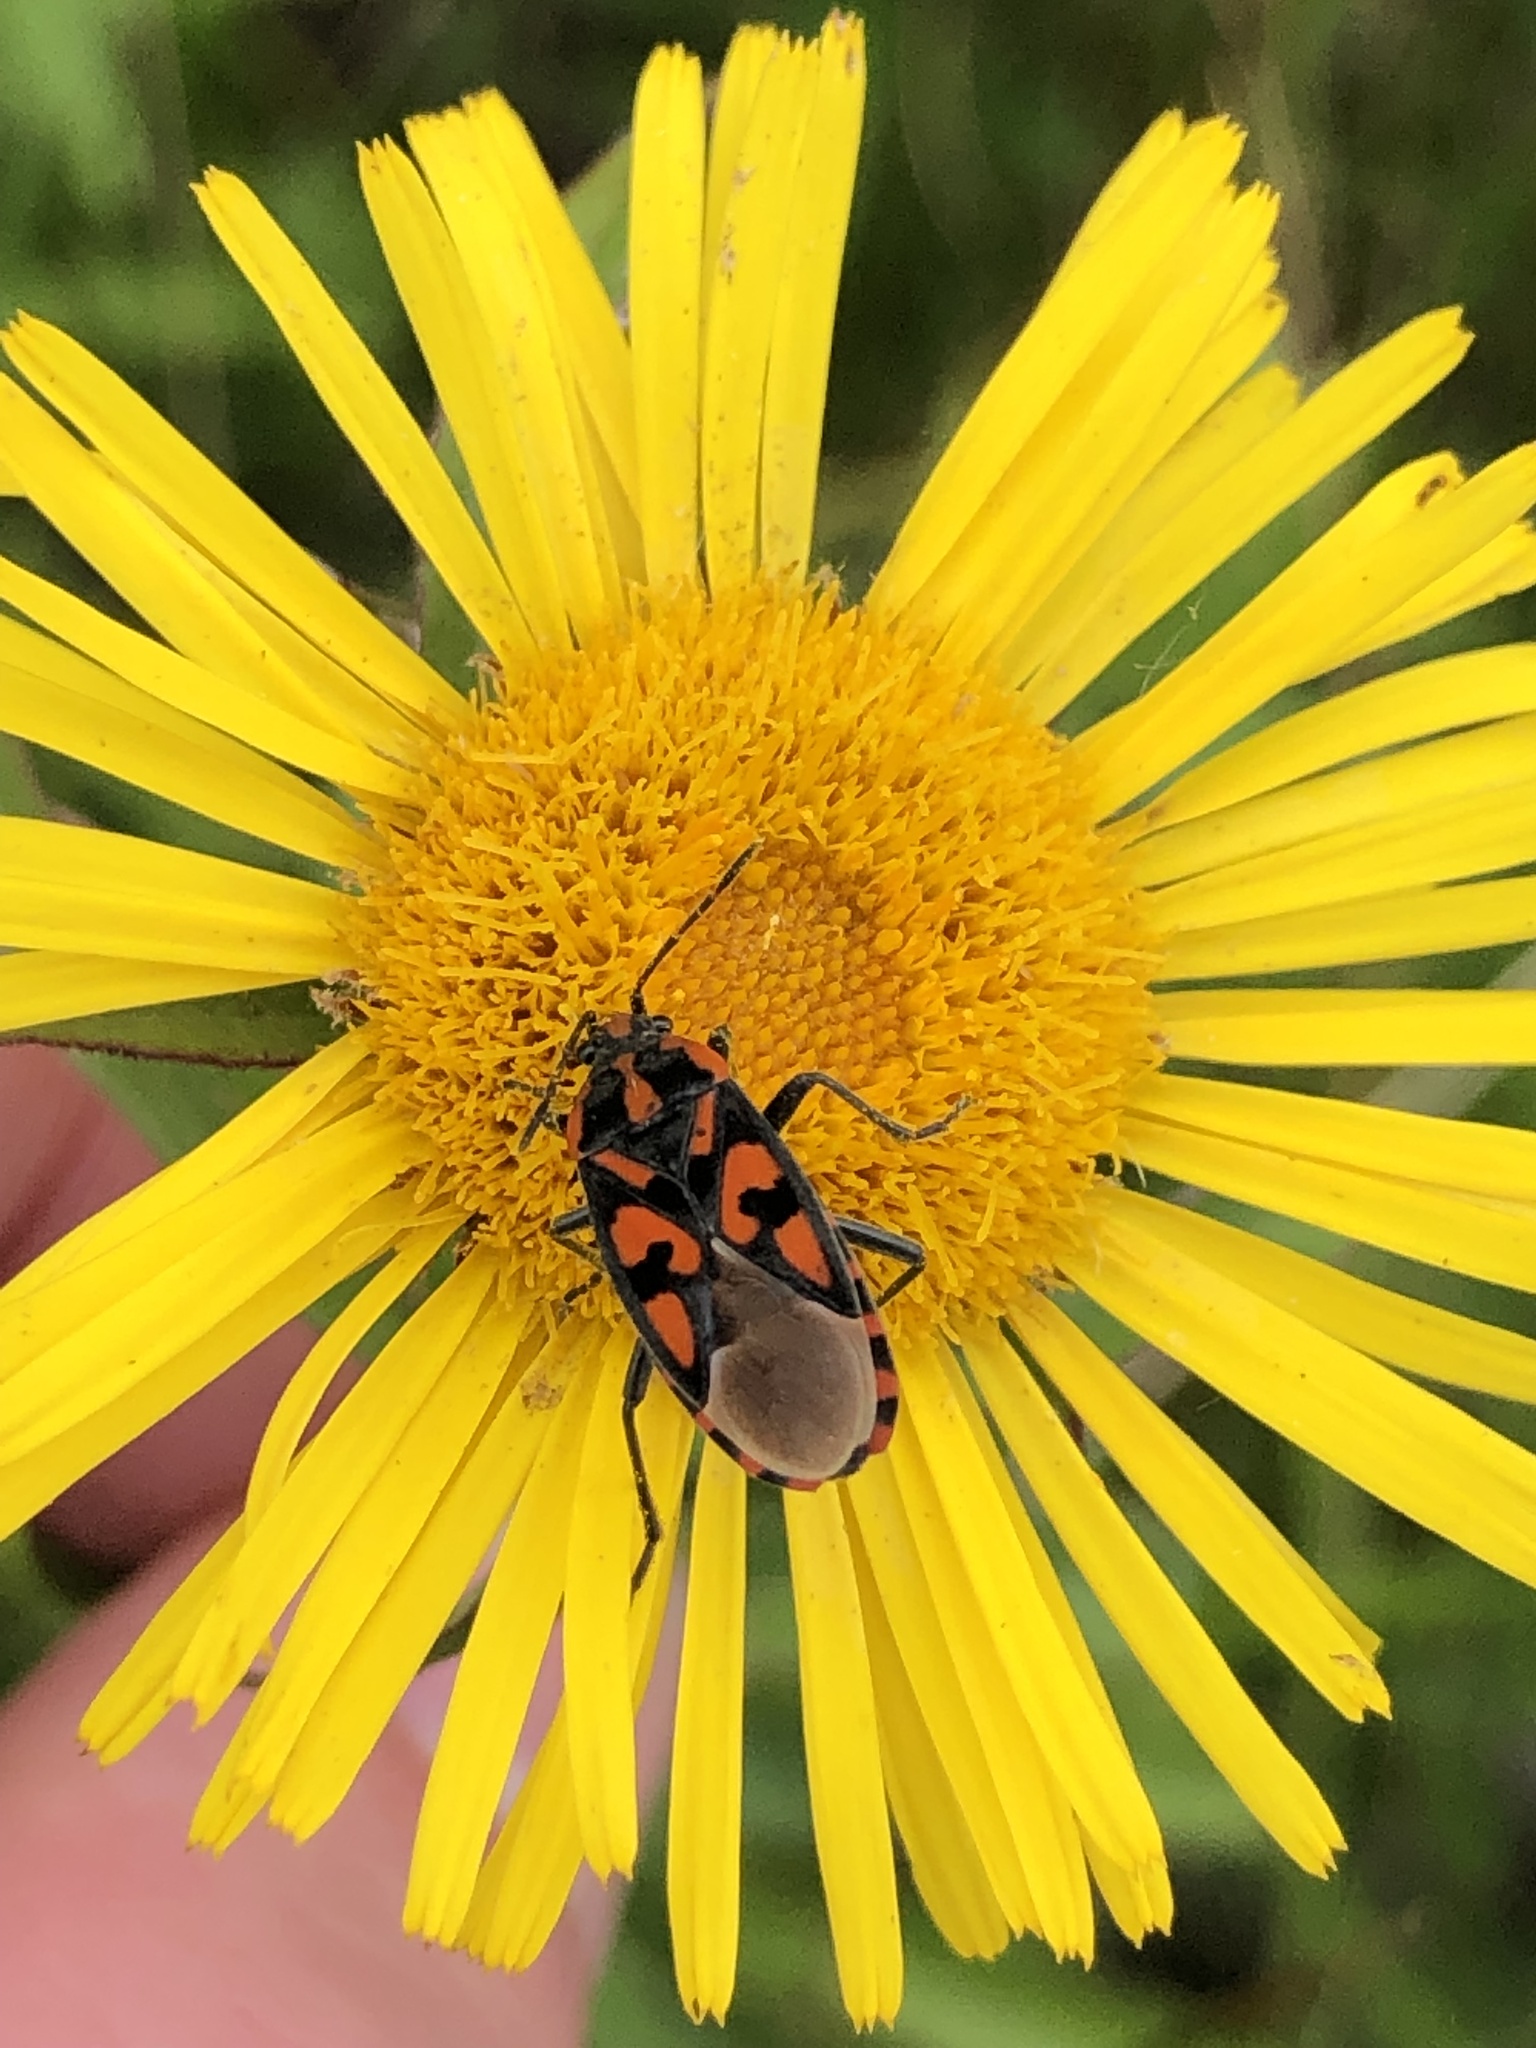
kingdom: Animalia
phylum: Arthropoda
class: Insecta
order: Hemiptera
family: Lygaeidae
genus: Spilostethus
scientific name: Spilostethus saxatilis
